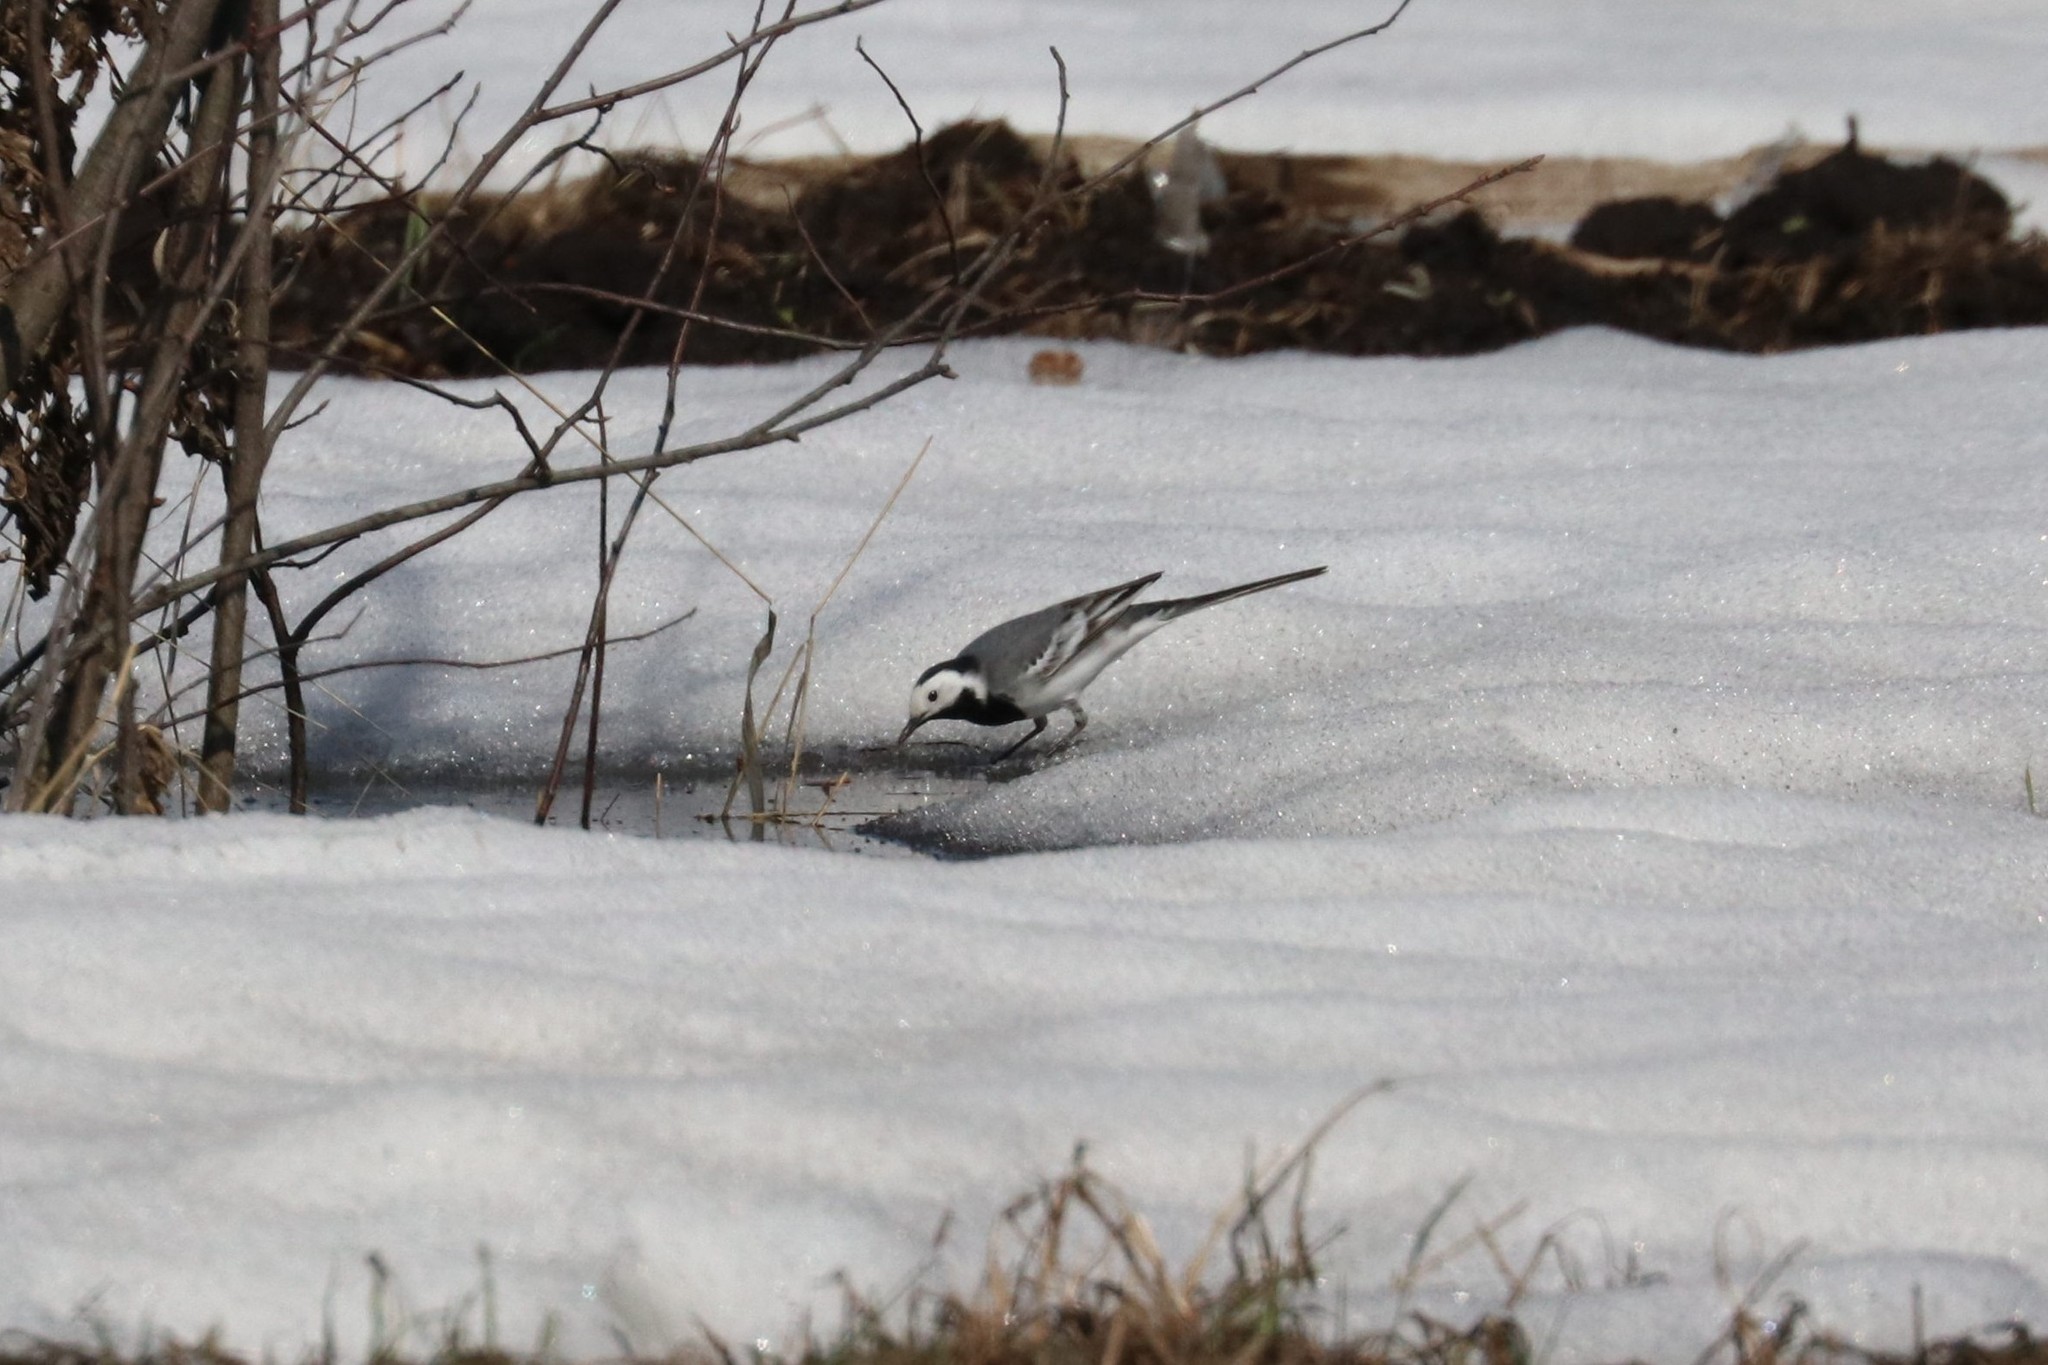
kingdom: Animalia
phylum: Chordata
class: Aves
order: Passeriformes
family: Motacillidae
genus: Motacilla
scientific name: Motacilla alba
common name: White wagtail
